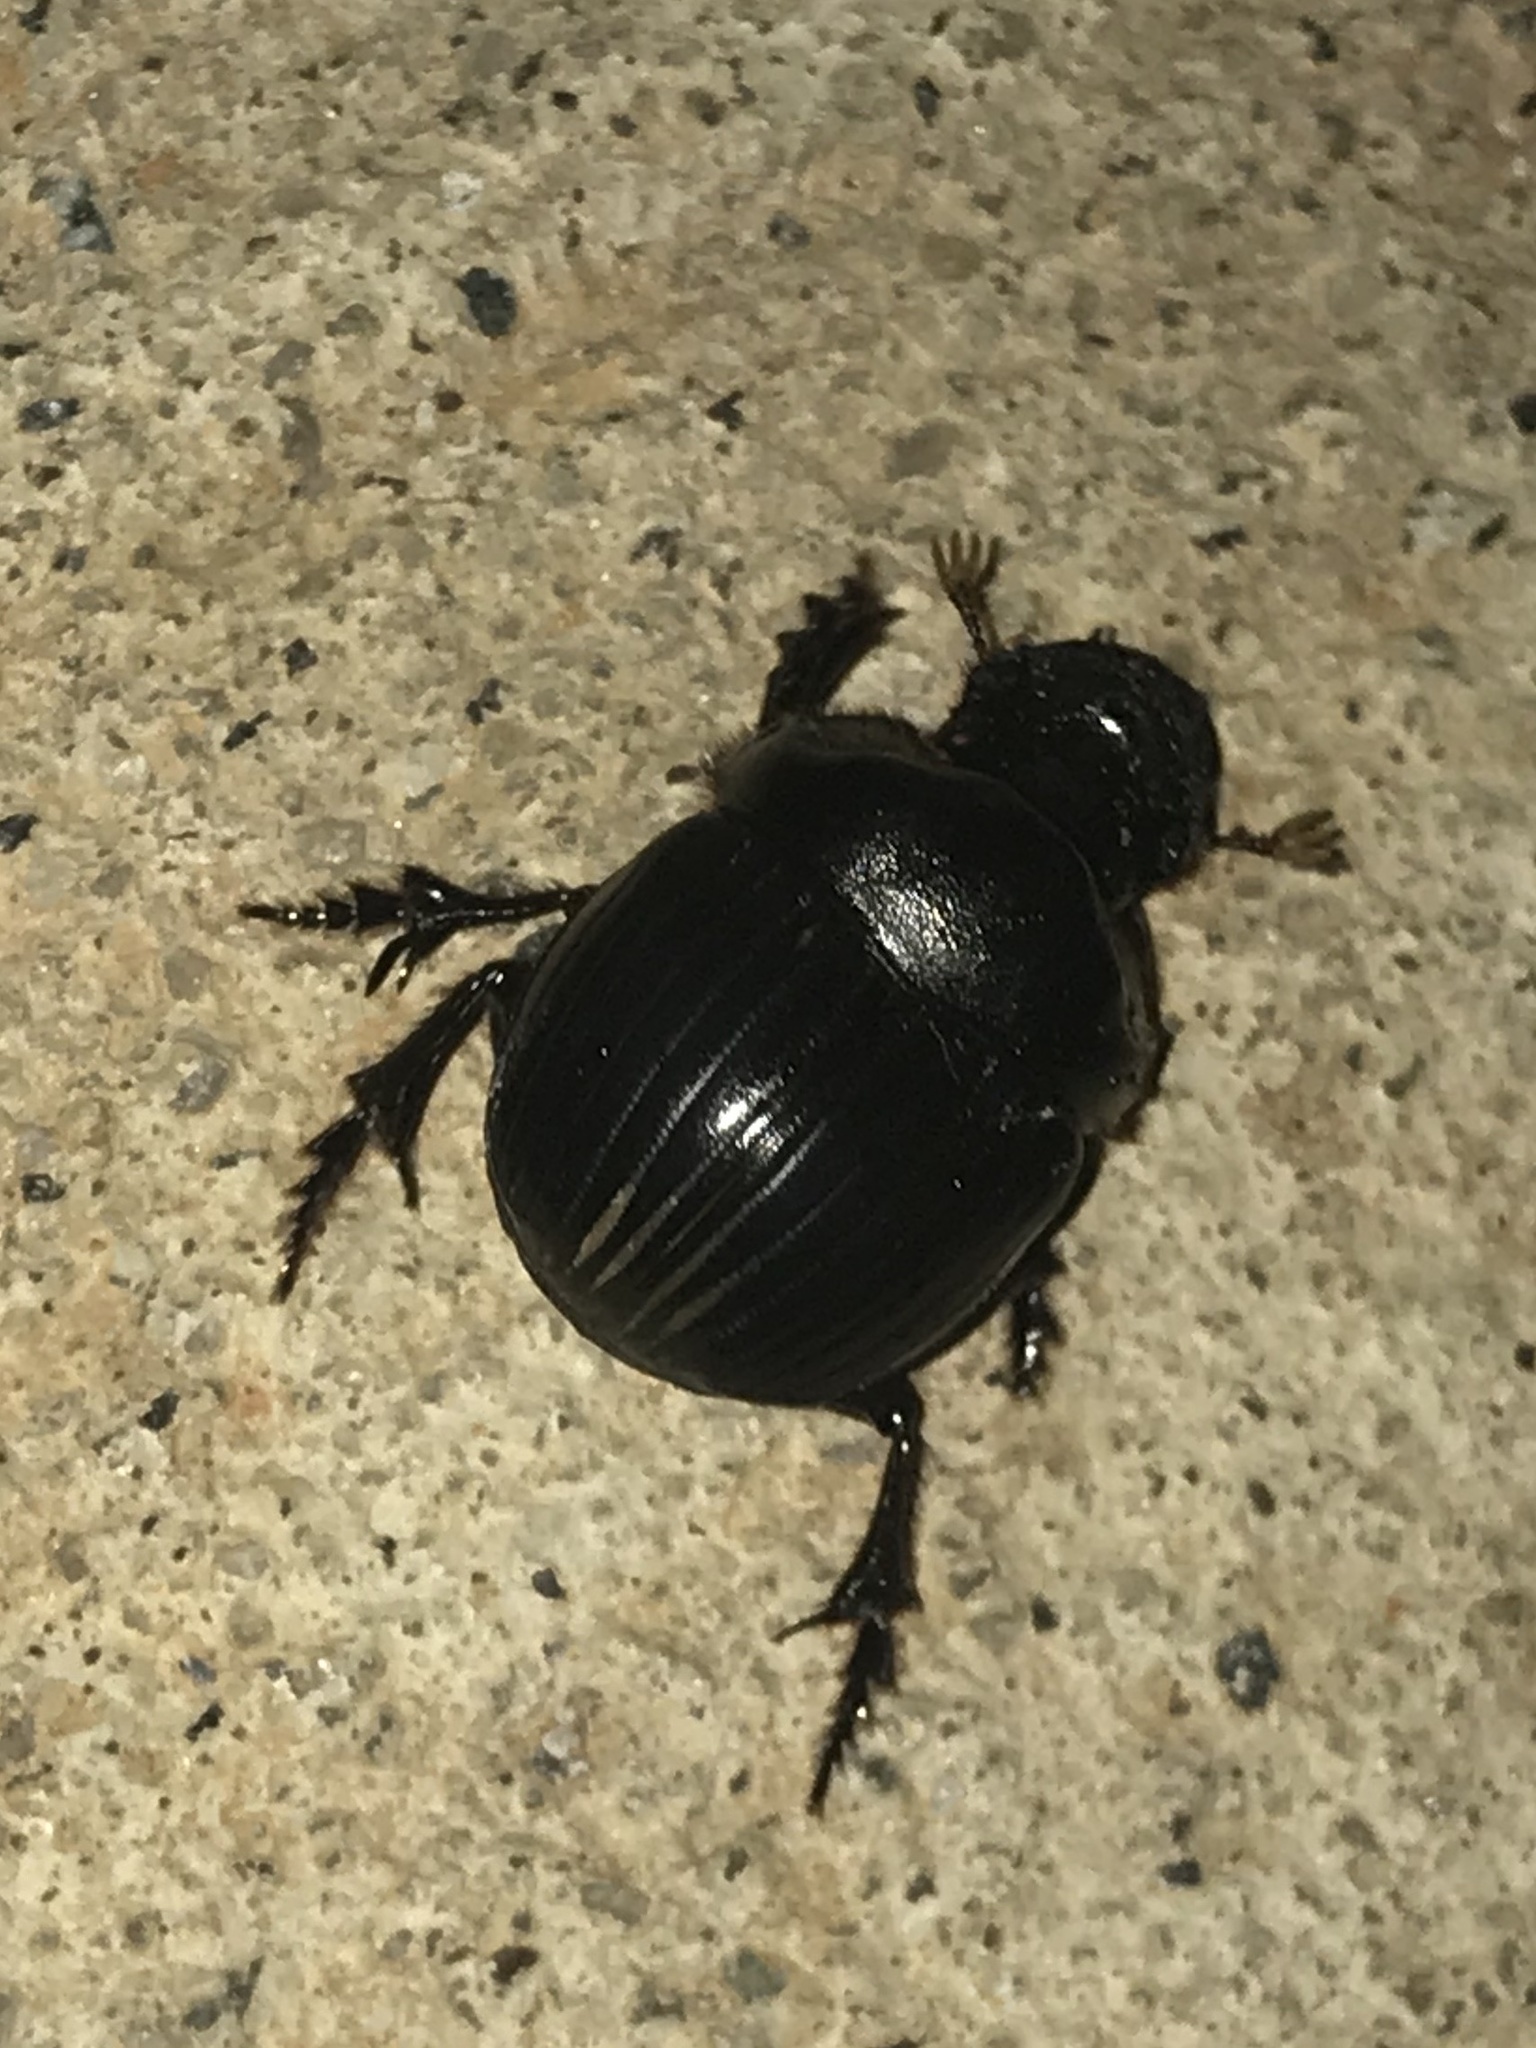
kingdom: Animalia
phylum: Arthropoda
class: Insecta
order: Coleoptera
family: Scarabaeidae
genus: Dichotomius
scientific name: Dichotomius carolinus
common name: Carolina copris
